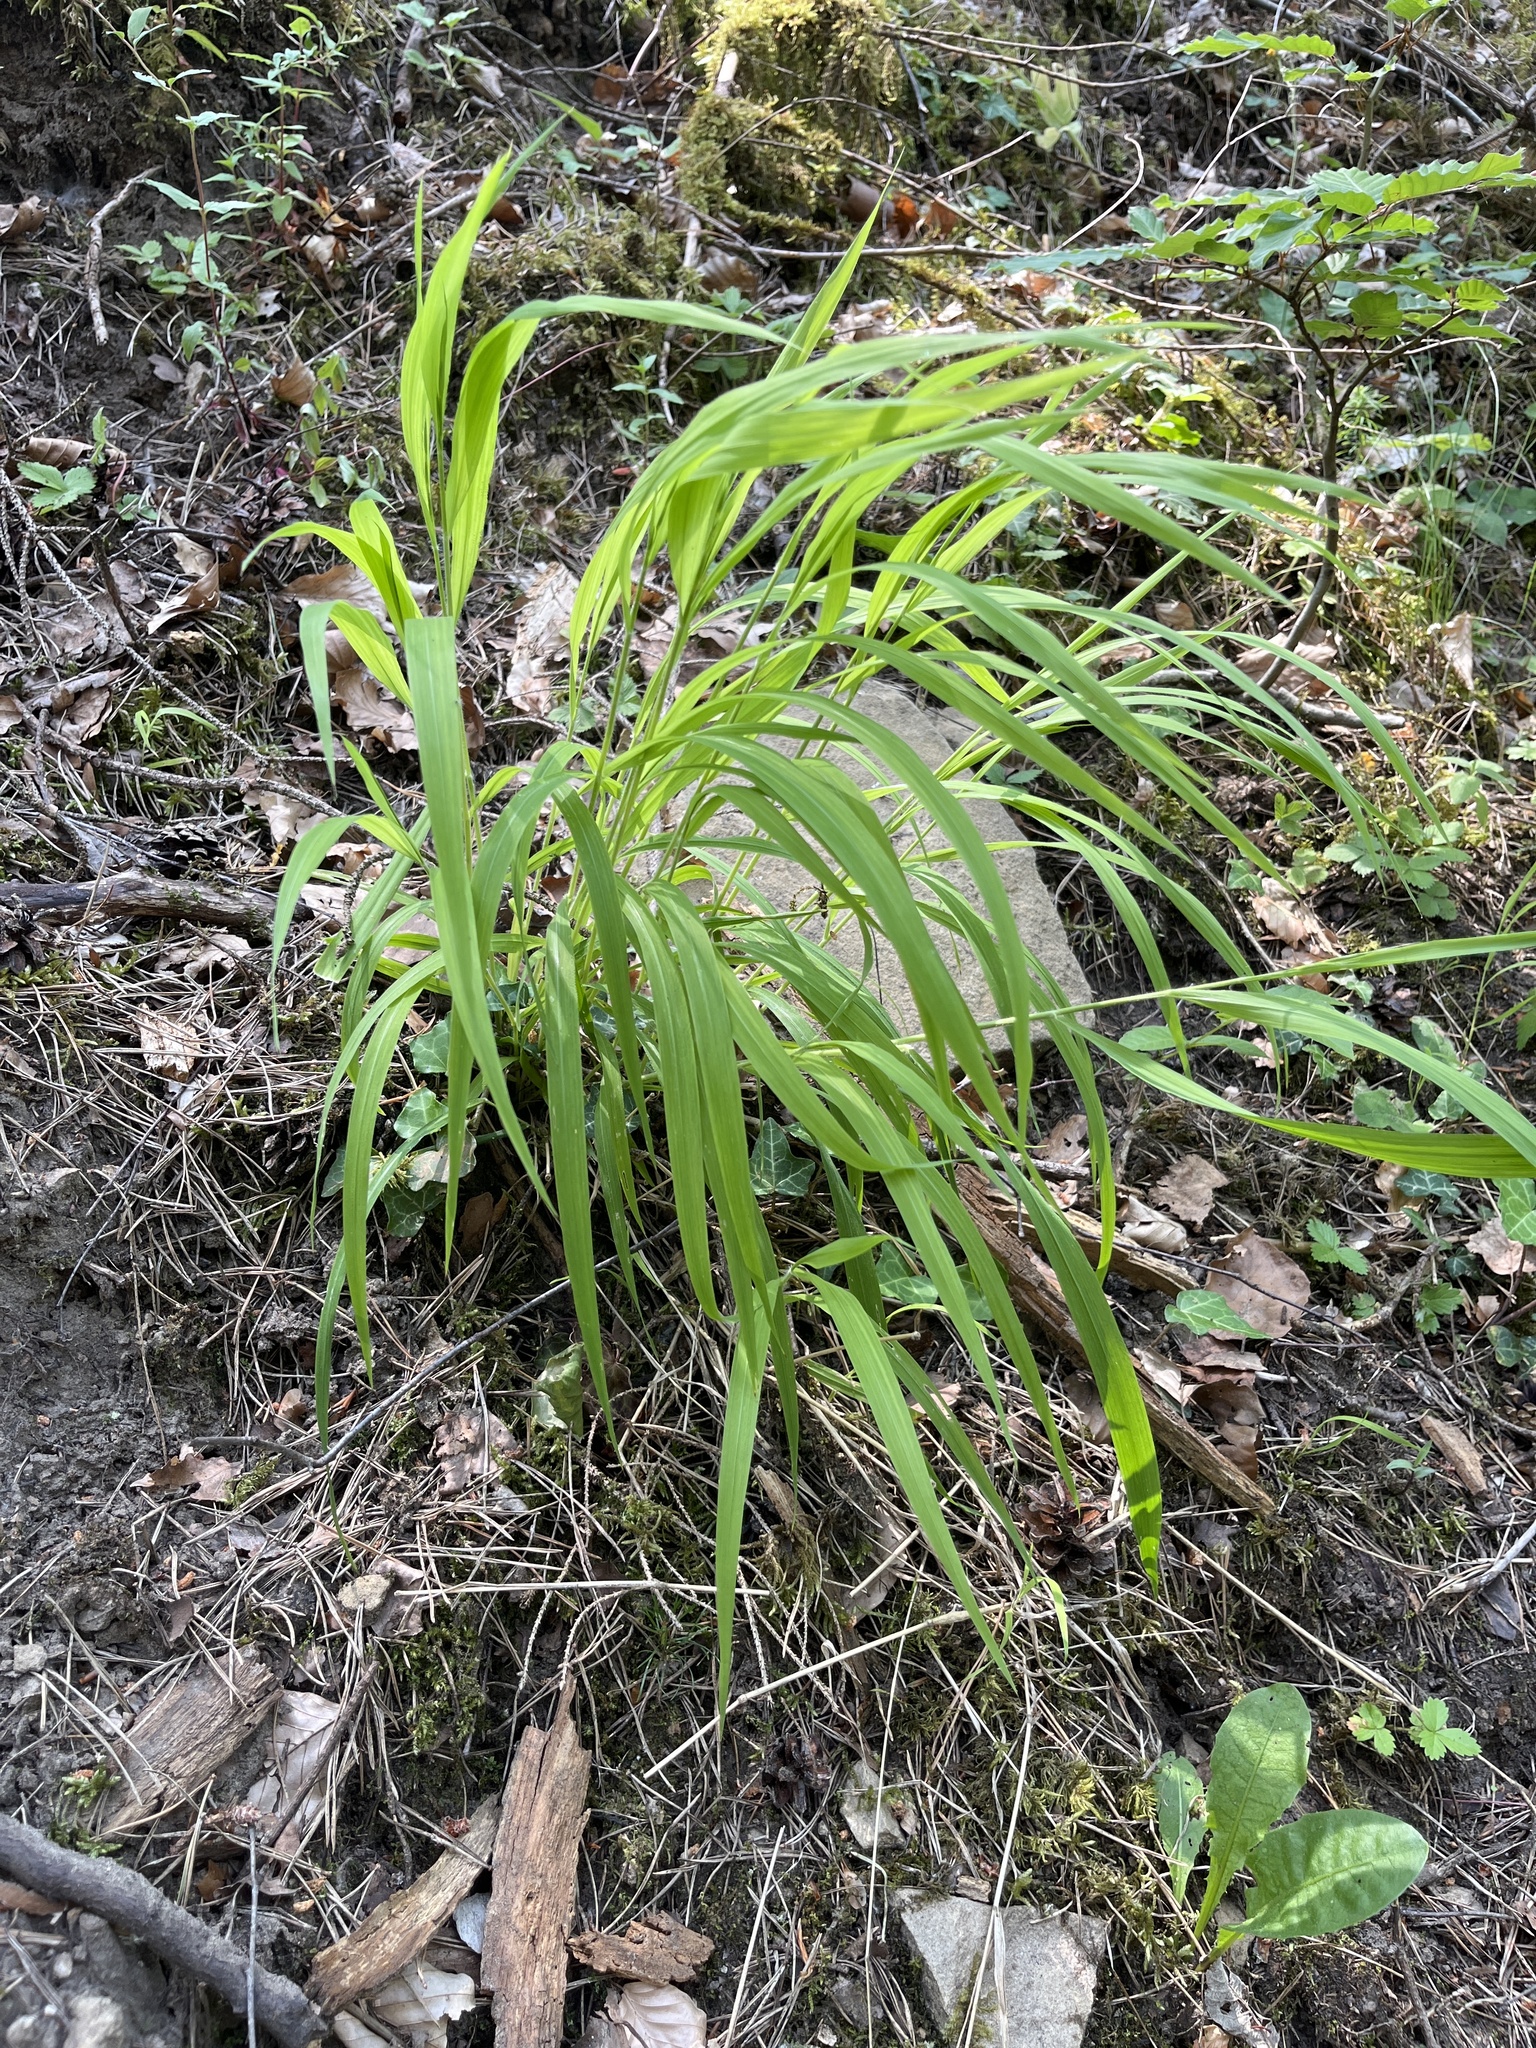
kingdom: Plantae
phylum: Tracheophyta
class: Liliopsida
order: Poales
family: Poaceae
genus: Brachypodium
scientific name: Brachypodium sylvaticum
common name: False-brome
